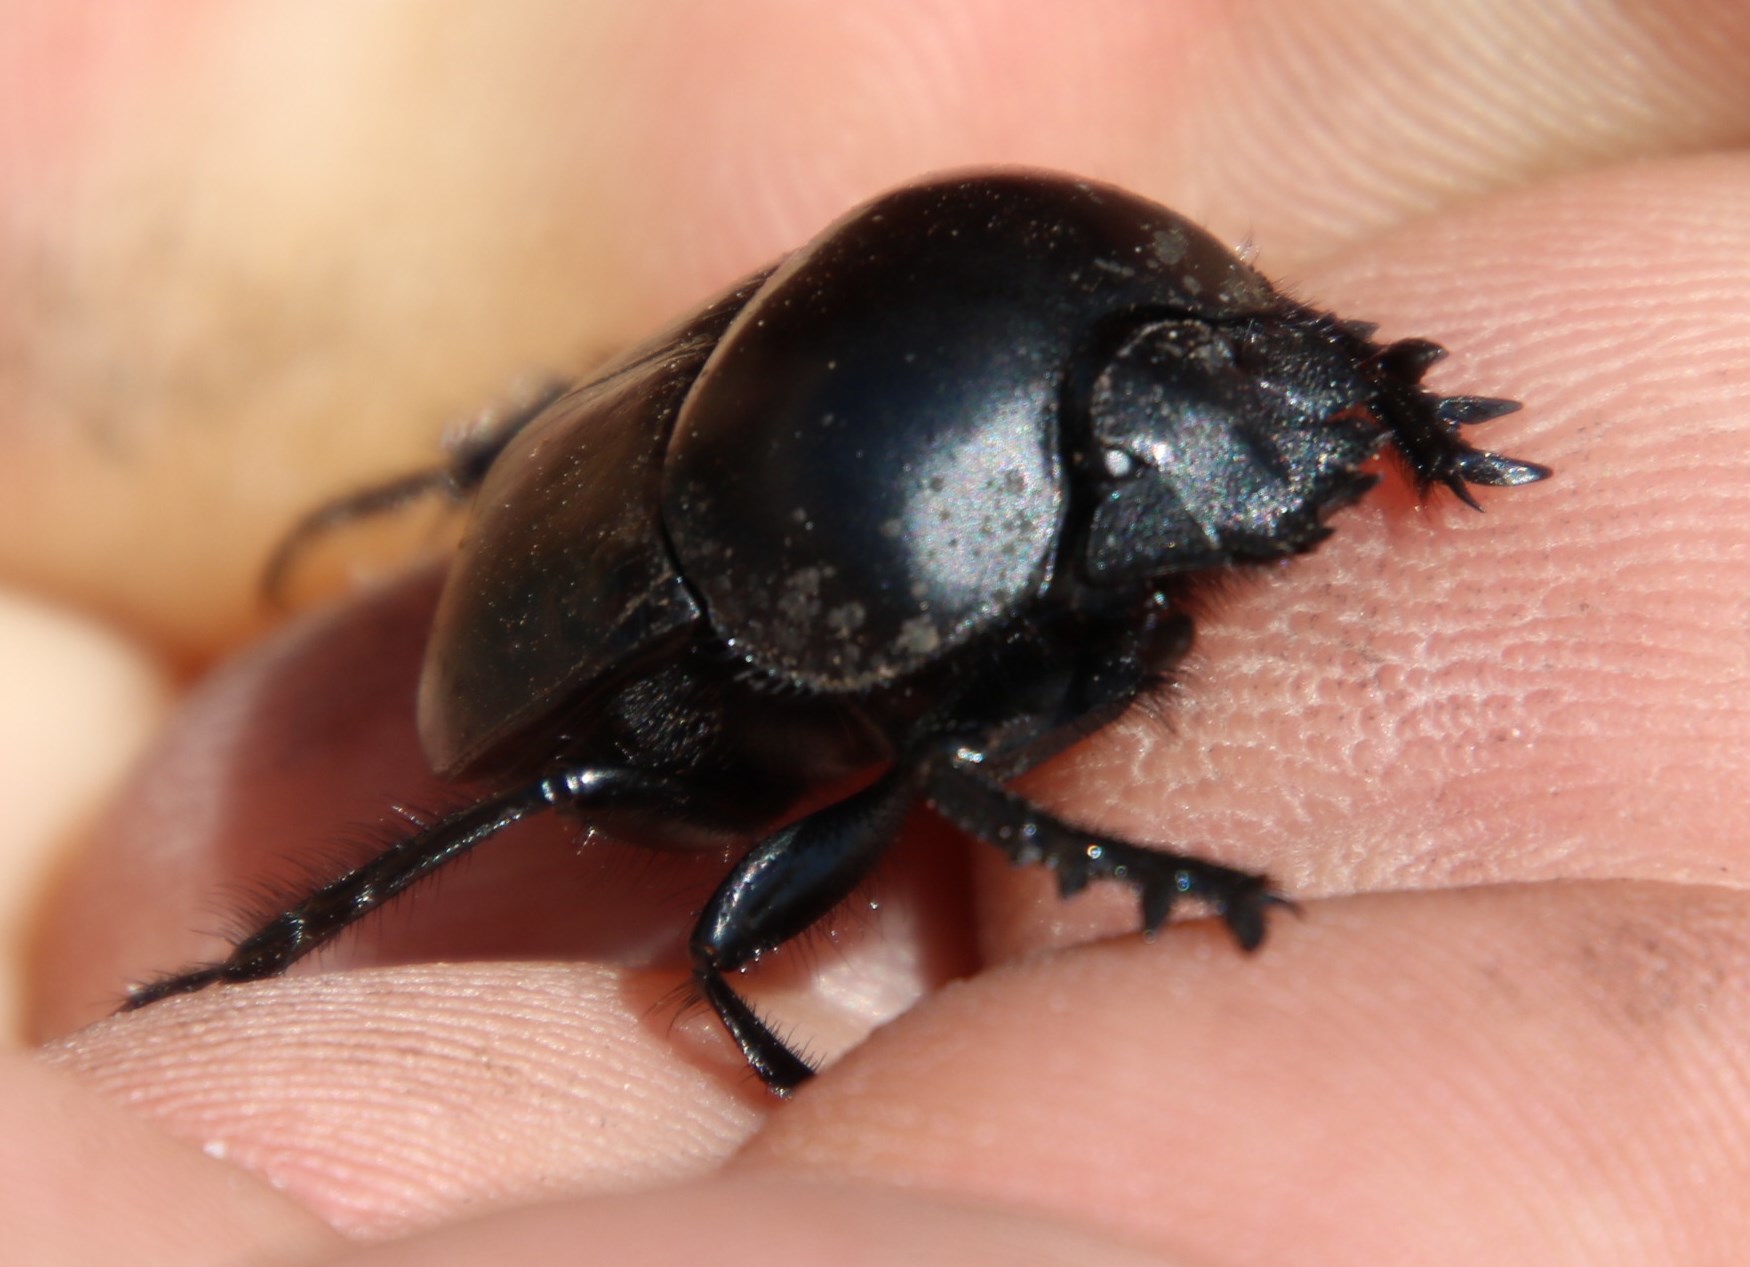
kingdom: Animalia
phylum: Arthropoda
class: Insecta
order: Coleoptera
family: Scarabaeidae
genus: Scarabaeus
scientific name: Scarabaeus convexus
